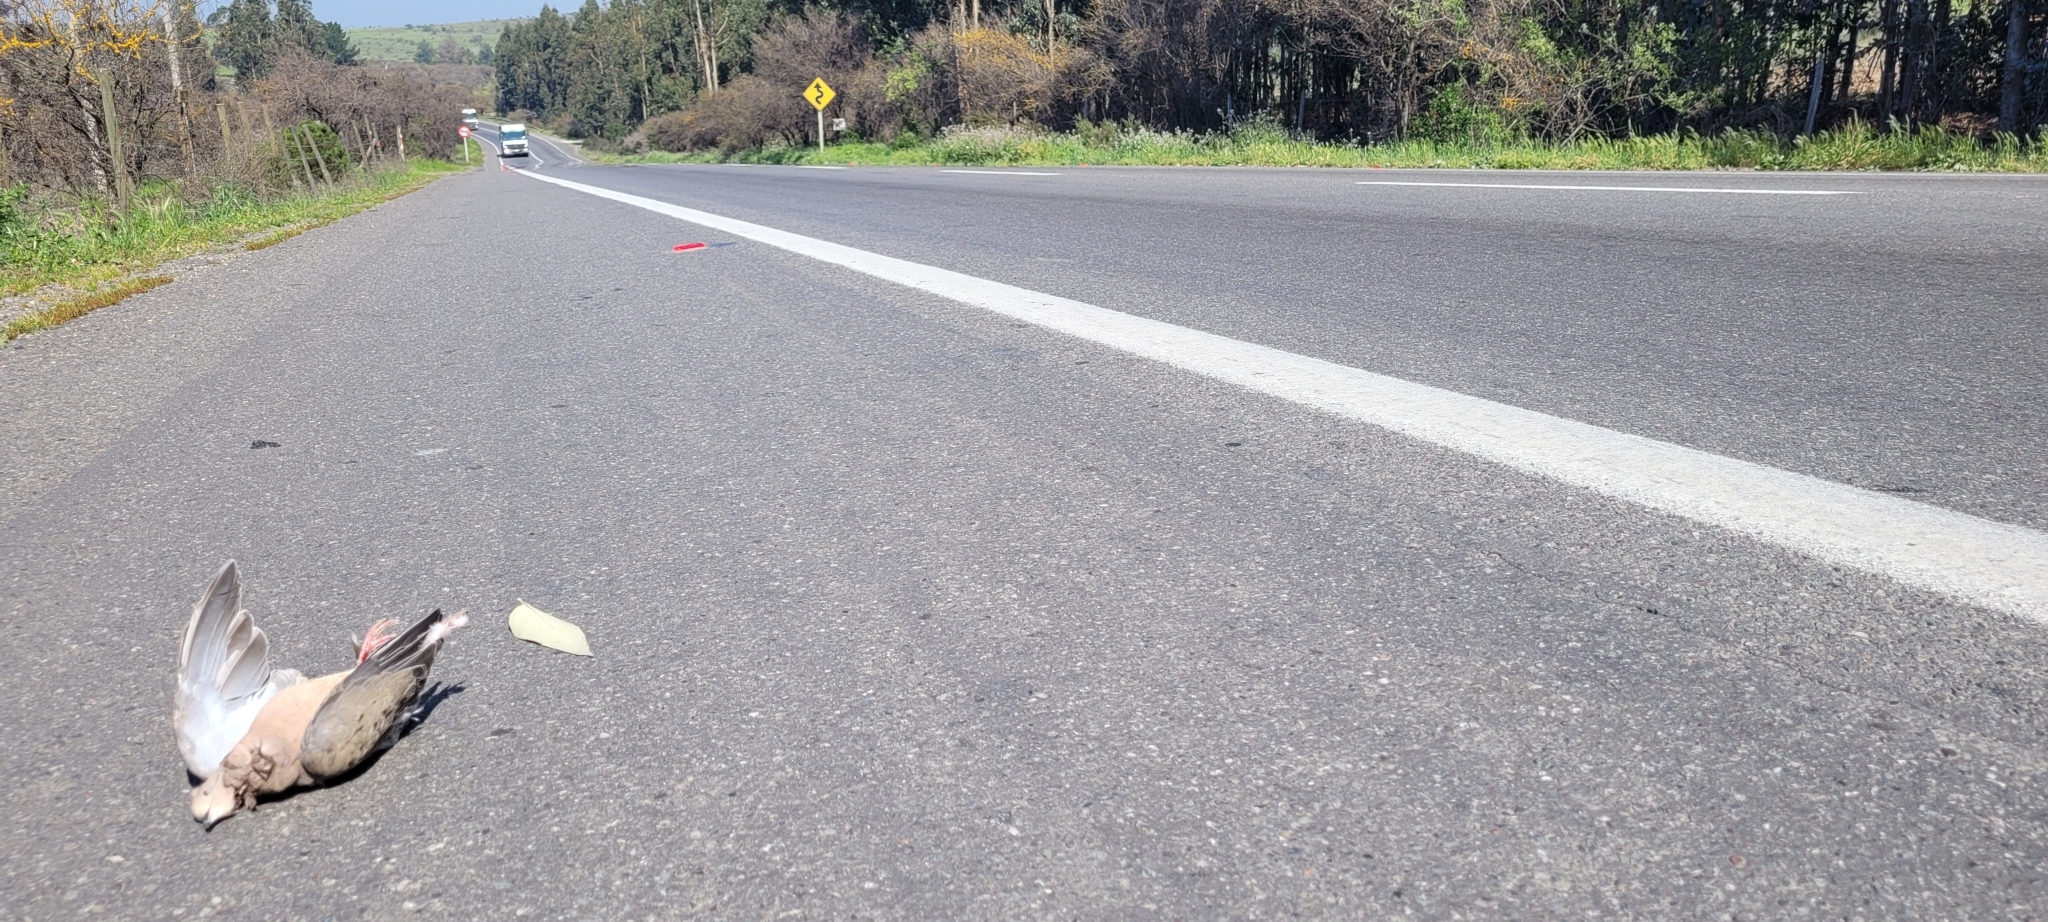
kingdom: Animalia
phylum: Chordata
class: Aves
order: Columbiformes
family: Columbidae
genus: Zenaida
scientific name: Zenaida auriculata
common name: Eared dove
